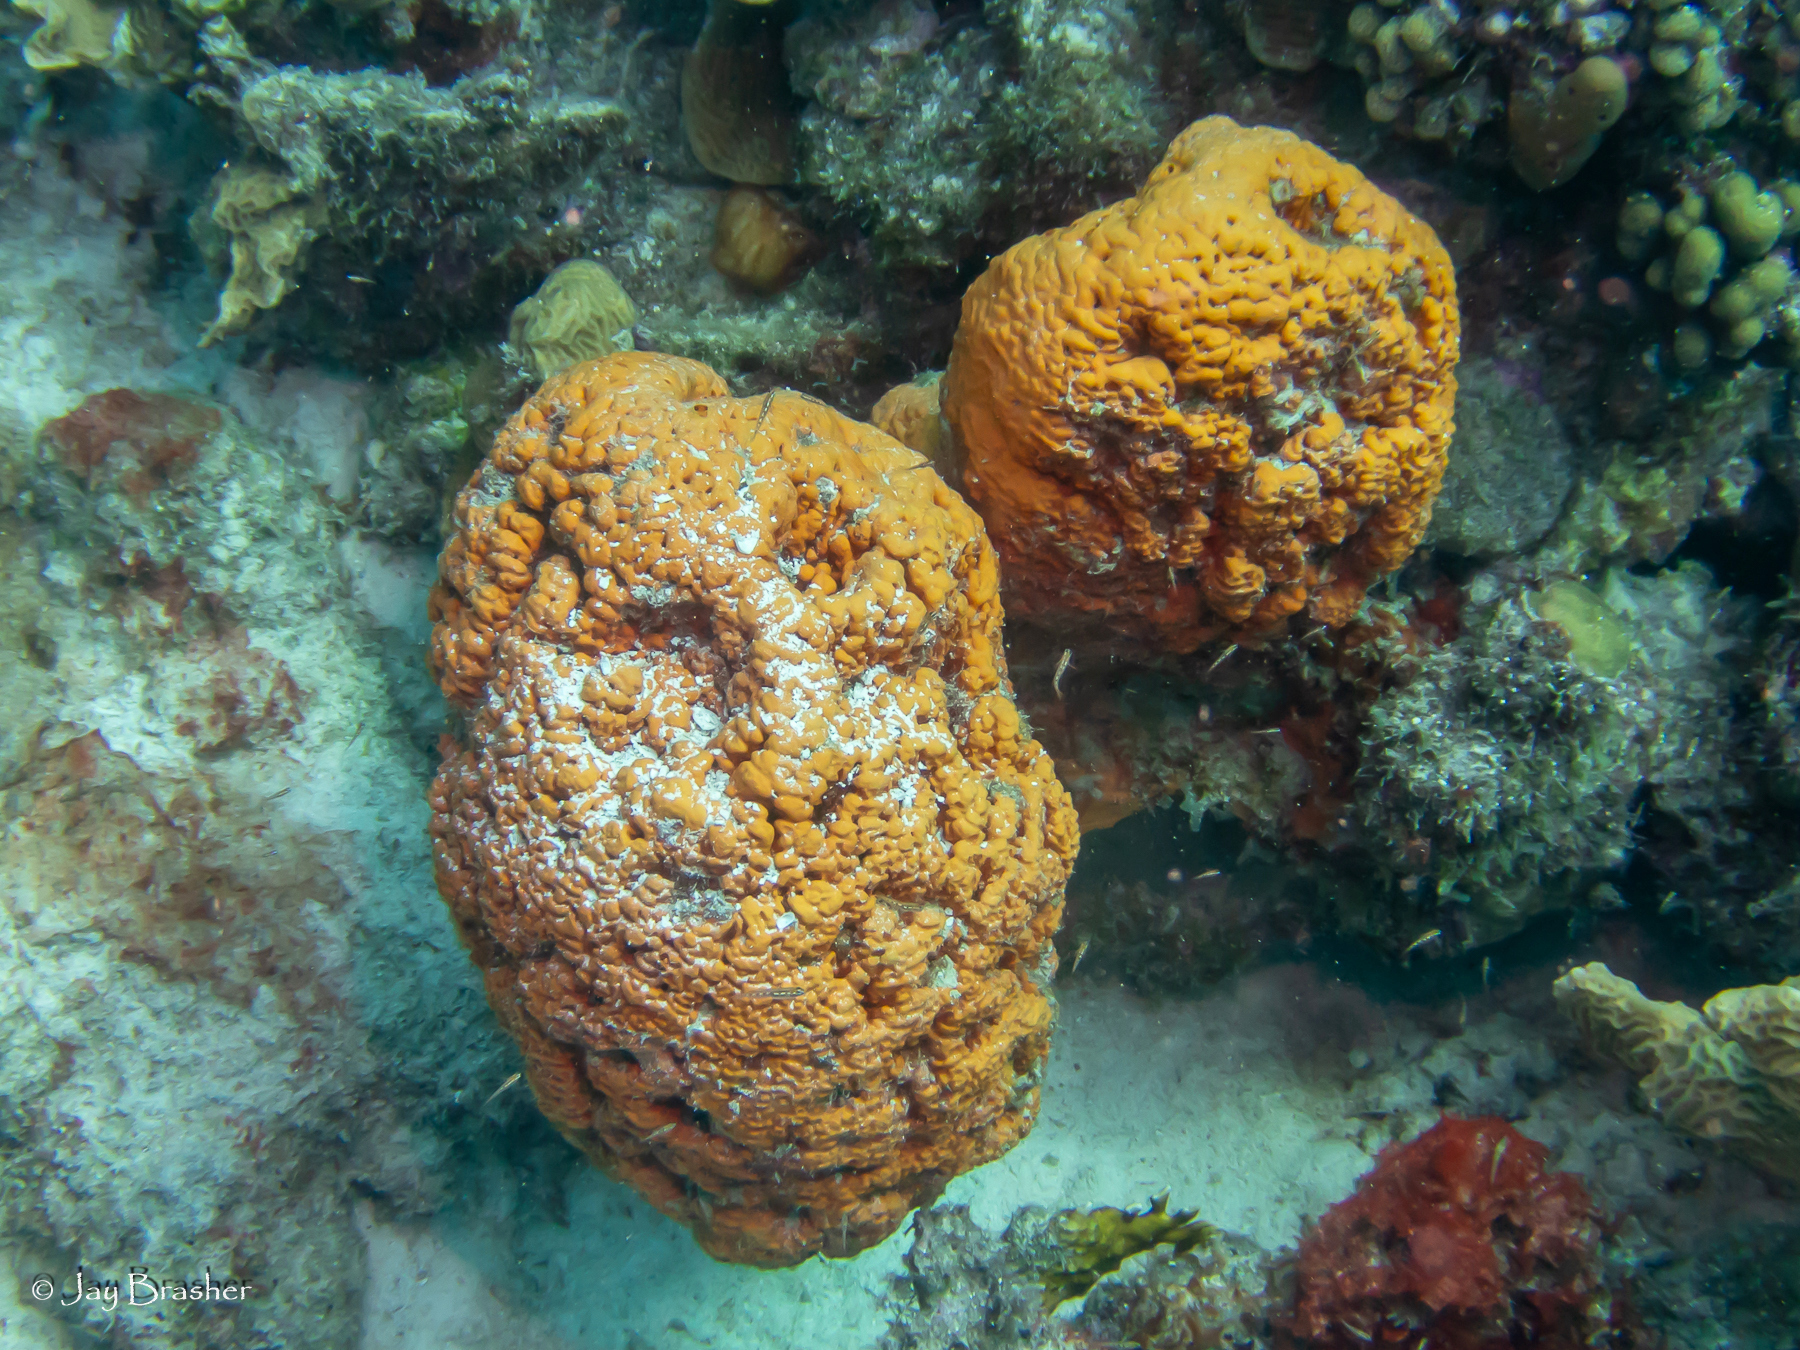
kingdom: Animalia
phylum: Porifera
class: Demospongiae
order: Agelasida
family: Agelasidae
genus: Agelas
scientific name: Agelas clathrodes
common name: Orange elephant ear sponge
